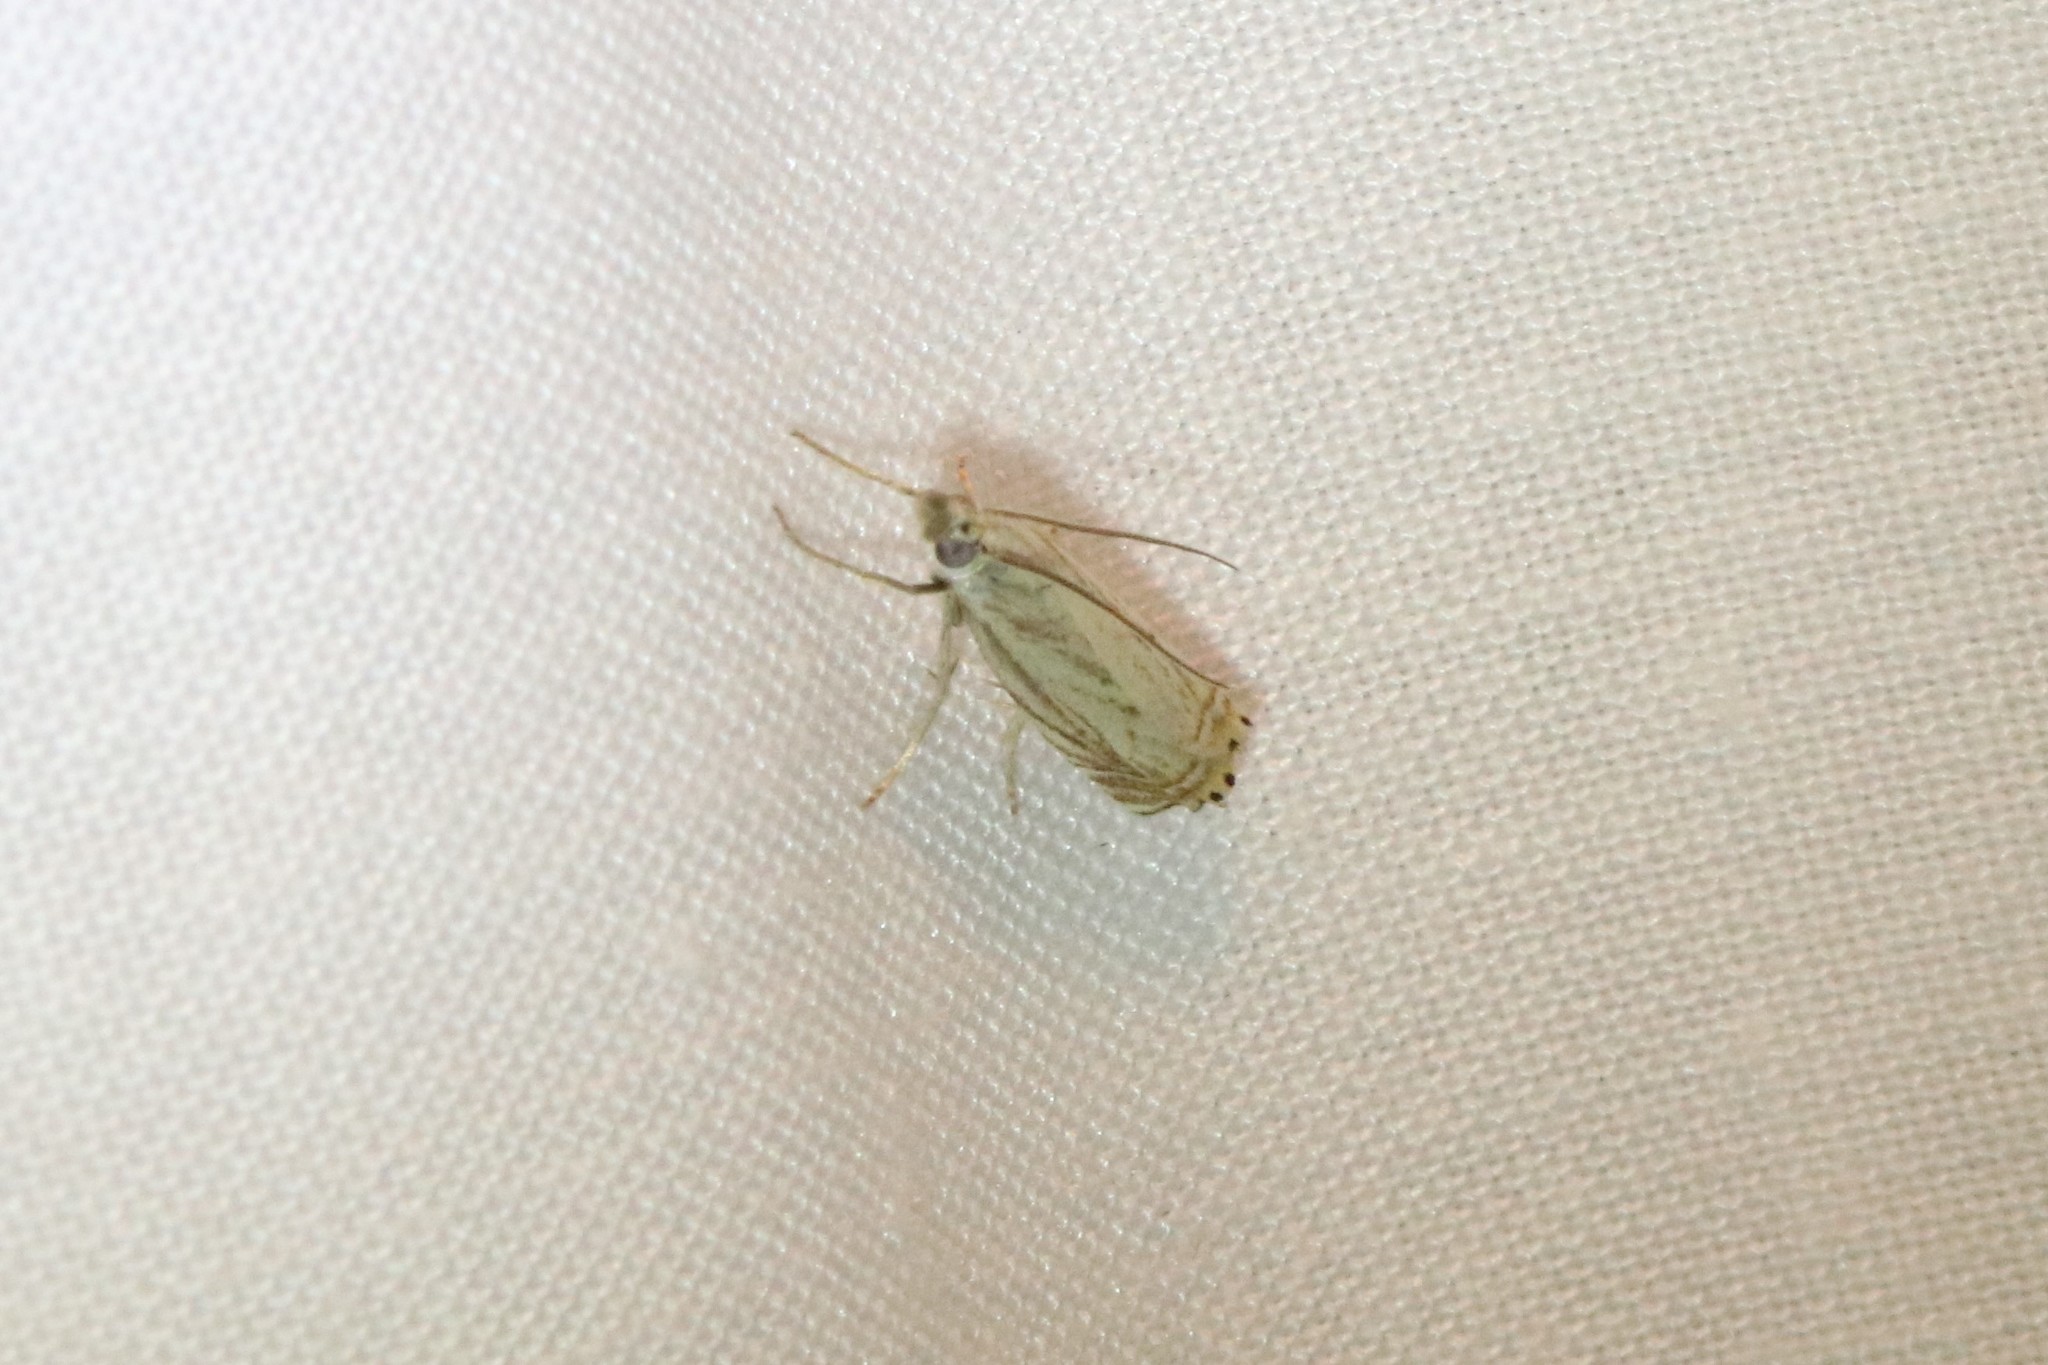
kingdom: Animalia
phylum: Arthropoda
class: Insecta
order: Lepidoptera
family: Crambidae
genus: Chrysoteuchia
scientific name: Chrysoteuchia topiarius
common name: Topiary grass-veneer
